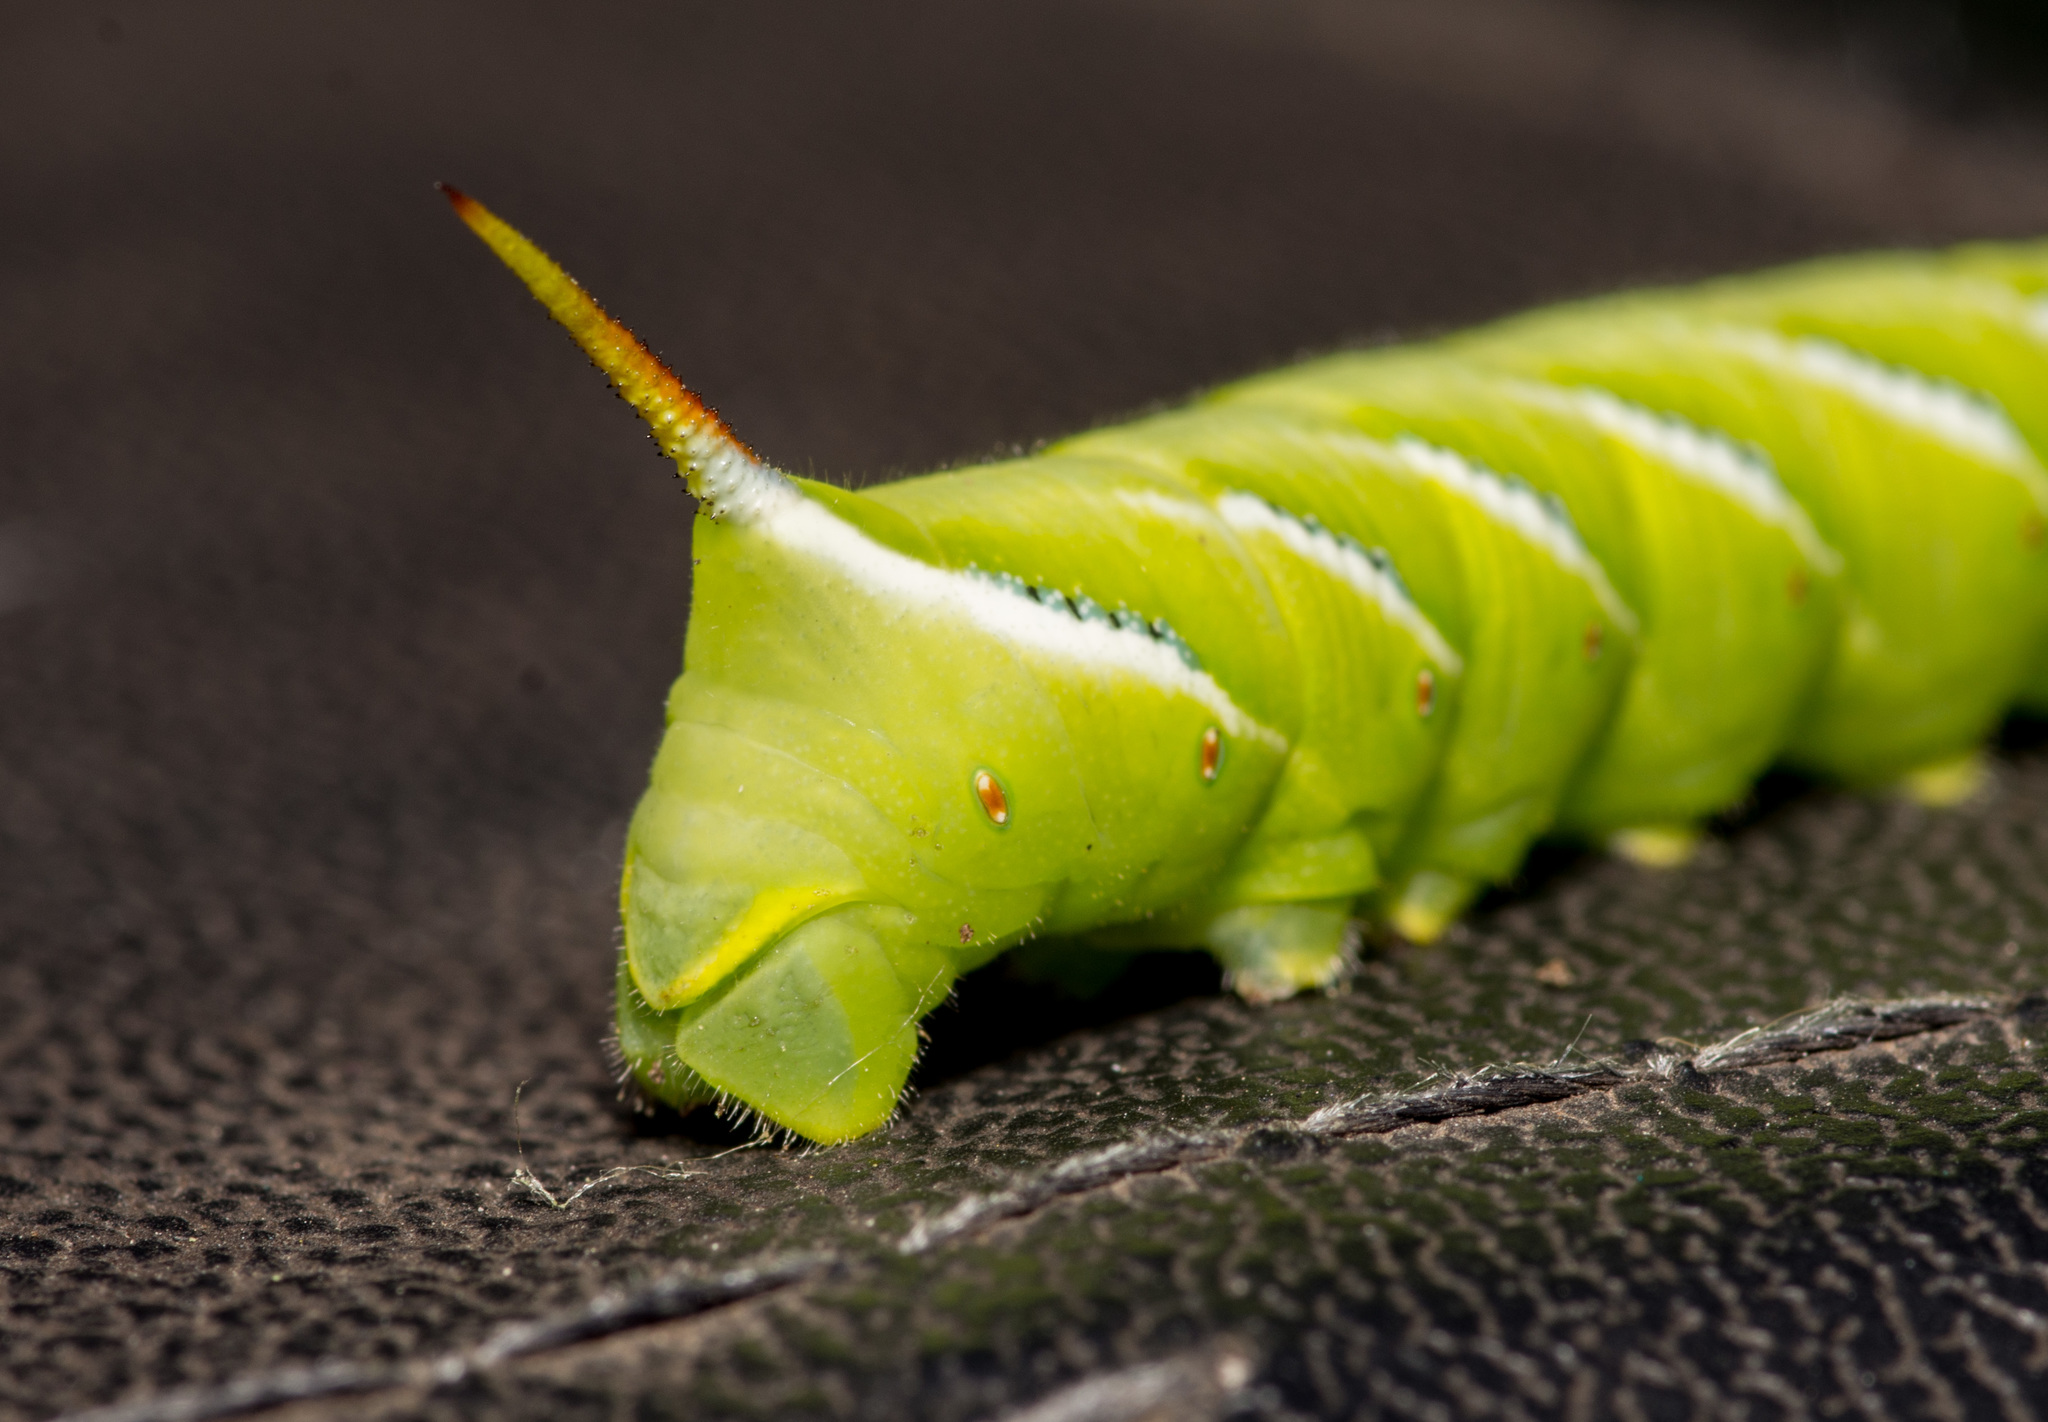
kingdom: Animalia
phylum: Arthropoda
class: Insecta
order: Lepidoptera
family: Sphingidae
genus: Manduca
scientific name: Manduca sexta
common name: Carolina sphinx
